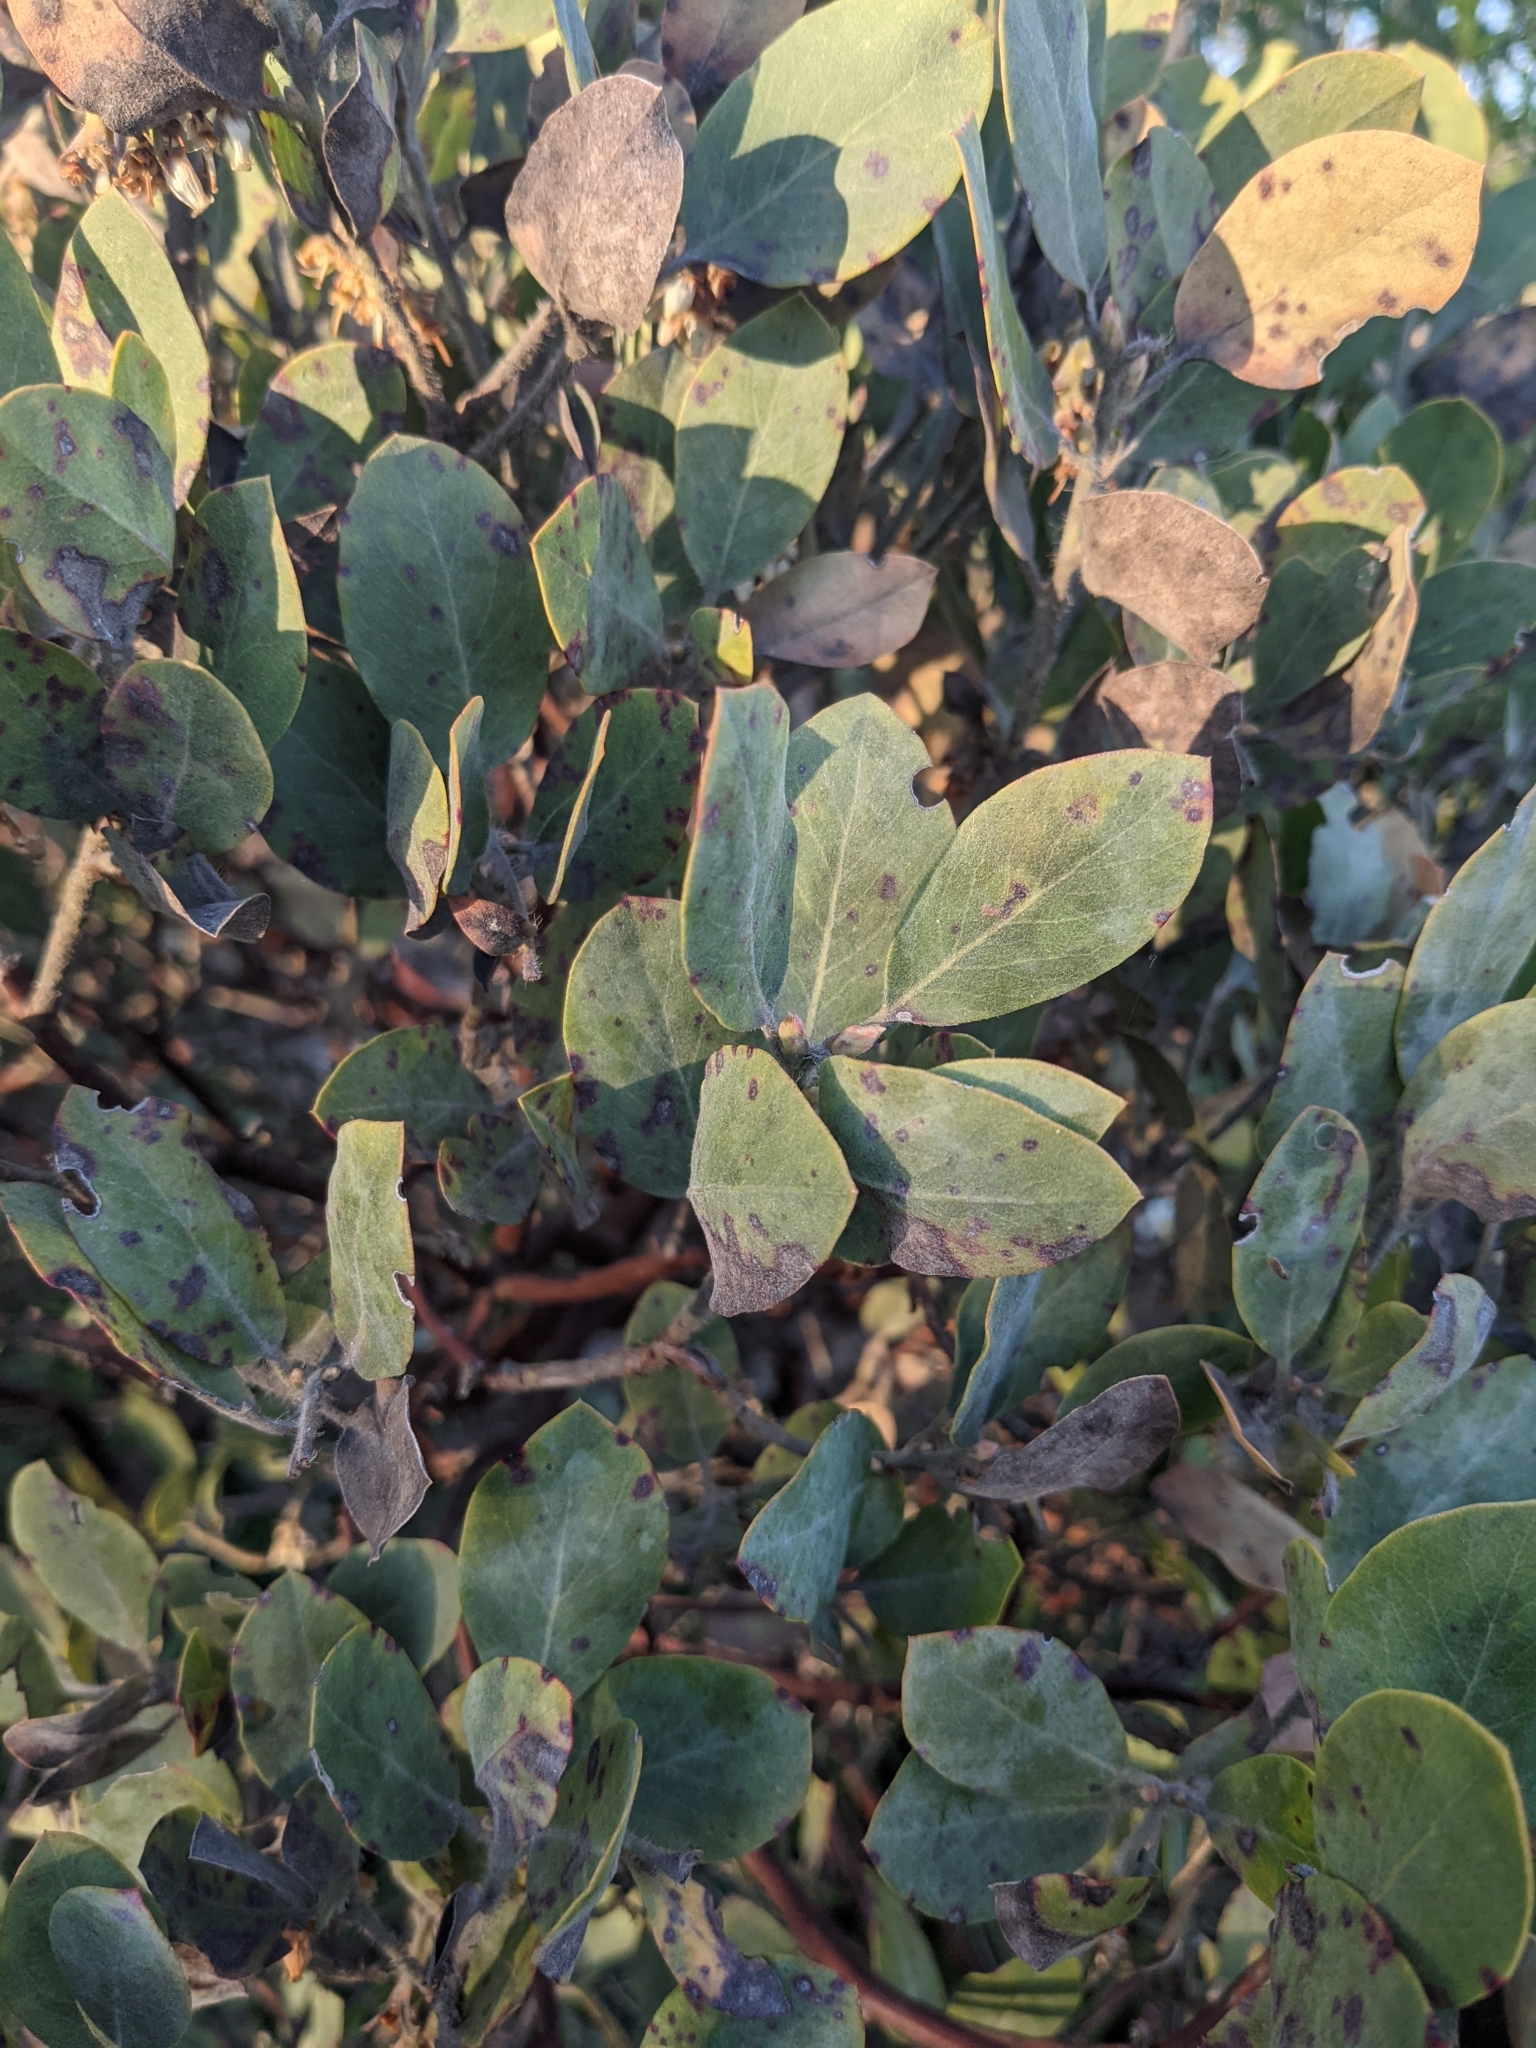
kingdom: Plantae
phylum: Tracheophyta
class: Magnoliopsida
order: Ericales
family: Ericaceae
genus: Arctostaphylos
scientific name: Arctostaphylos columbiana
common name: Bristly bearberry
